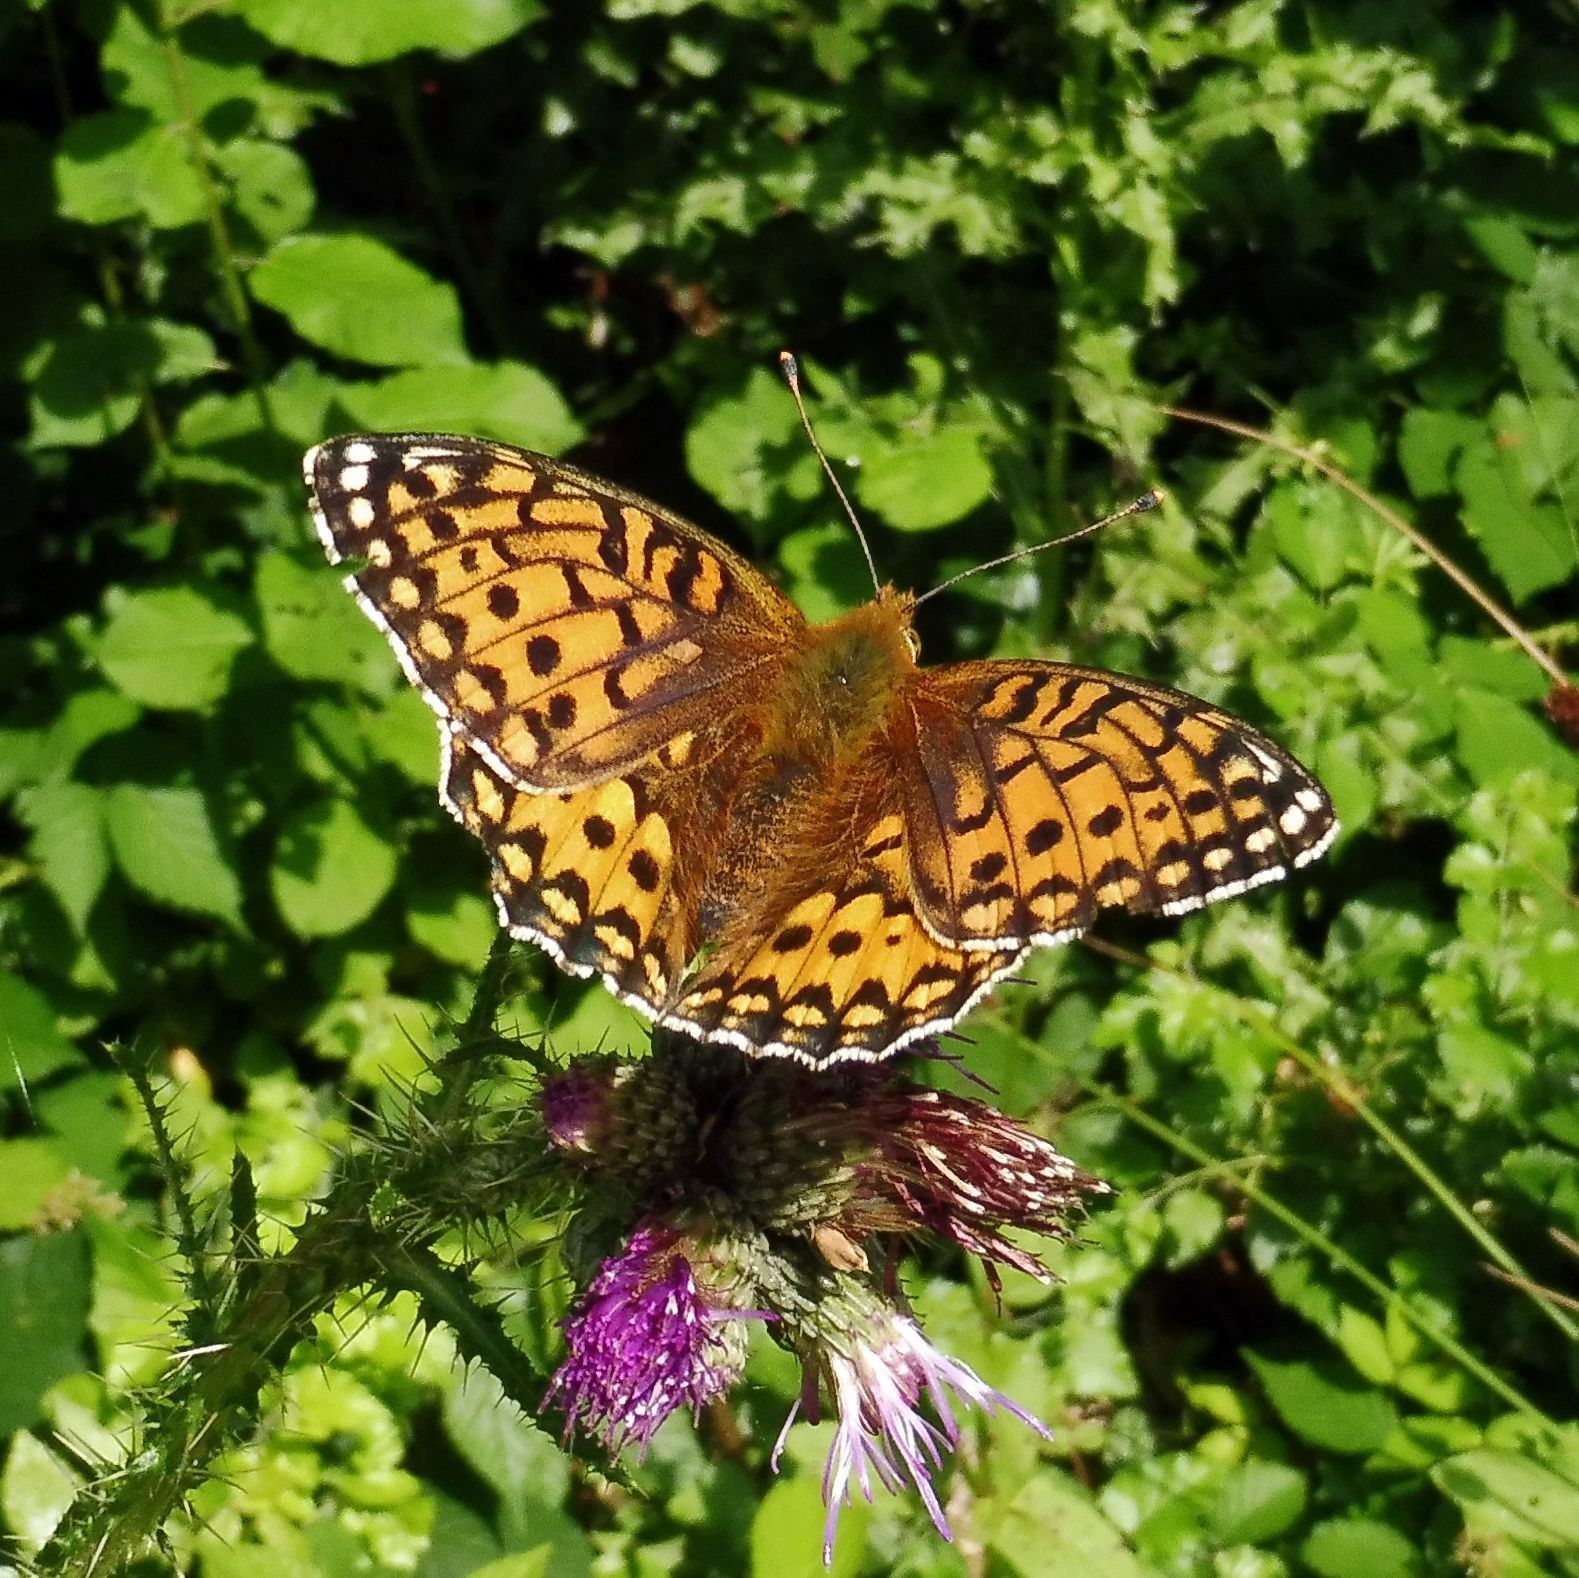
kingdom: Animalia
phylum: Arthropoda
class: Insecta
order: Lepidoptera
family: Nymphalidae
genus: Speyeria
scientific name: Speyeria aglaja
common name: Dark green fritillary
